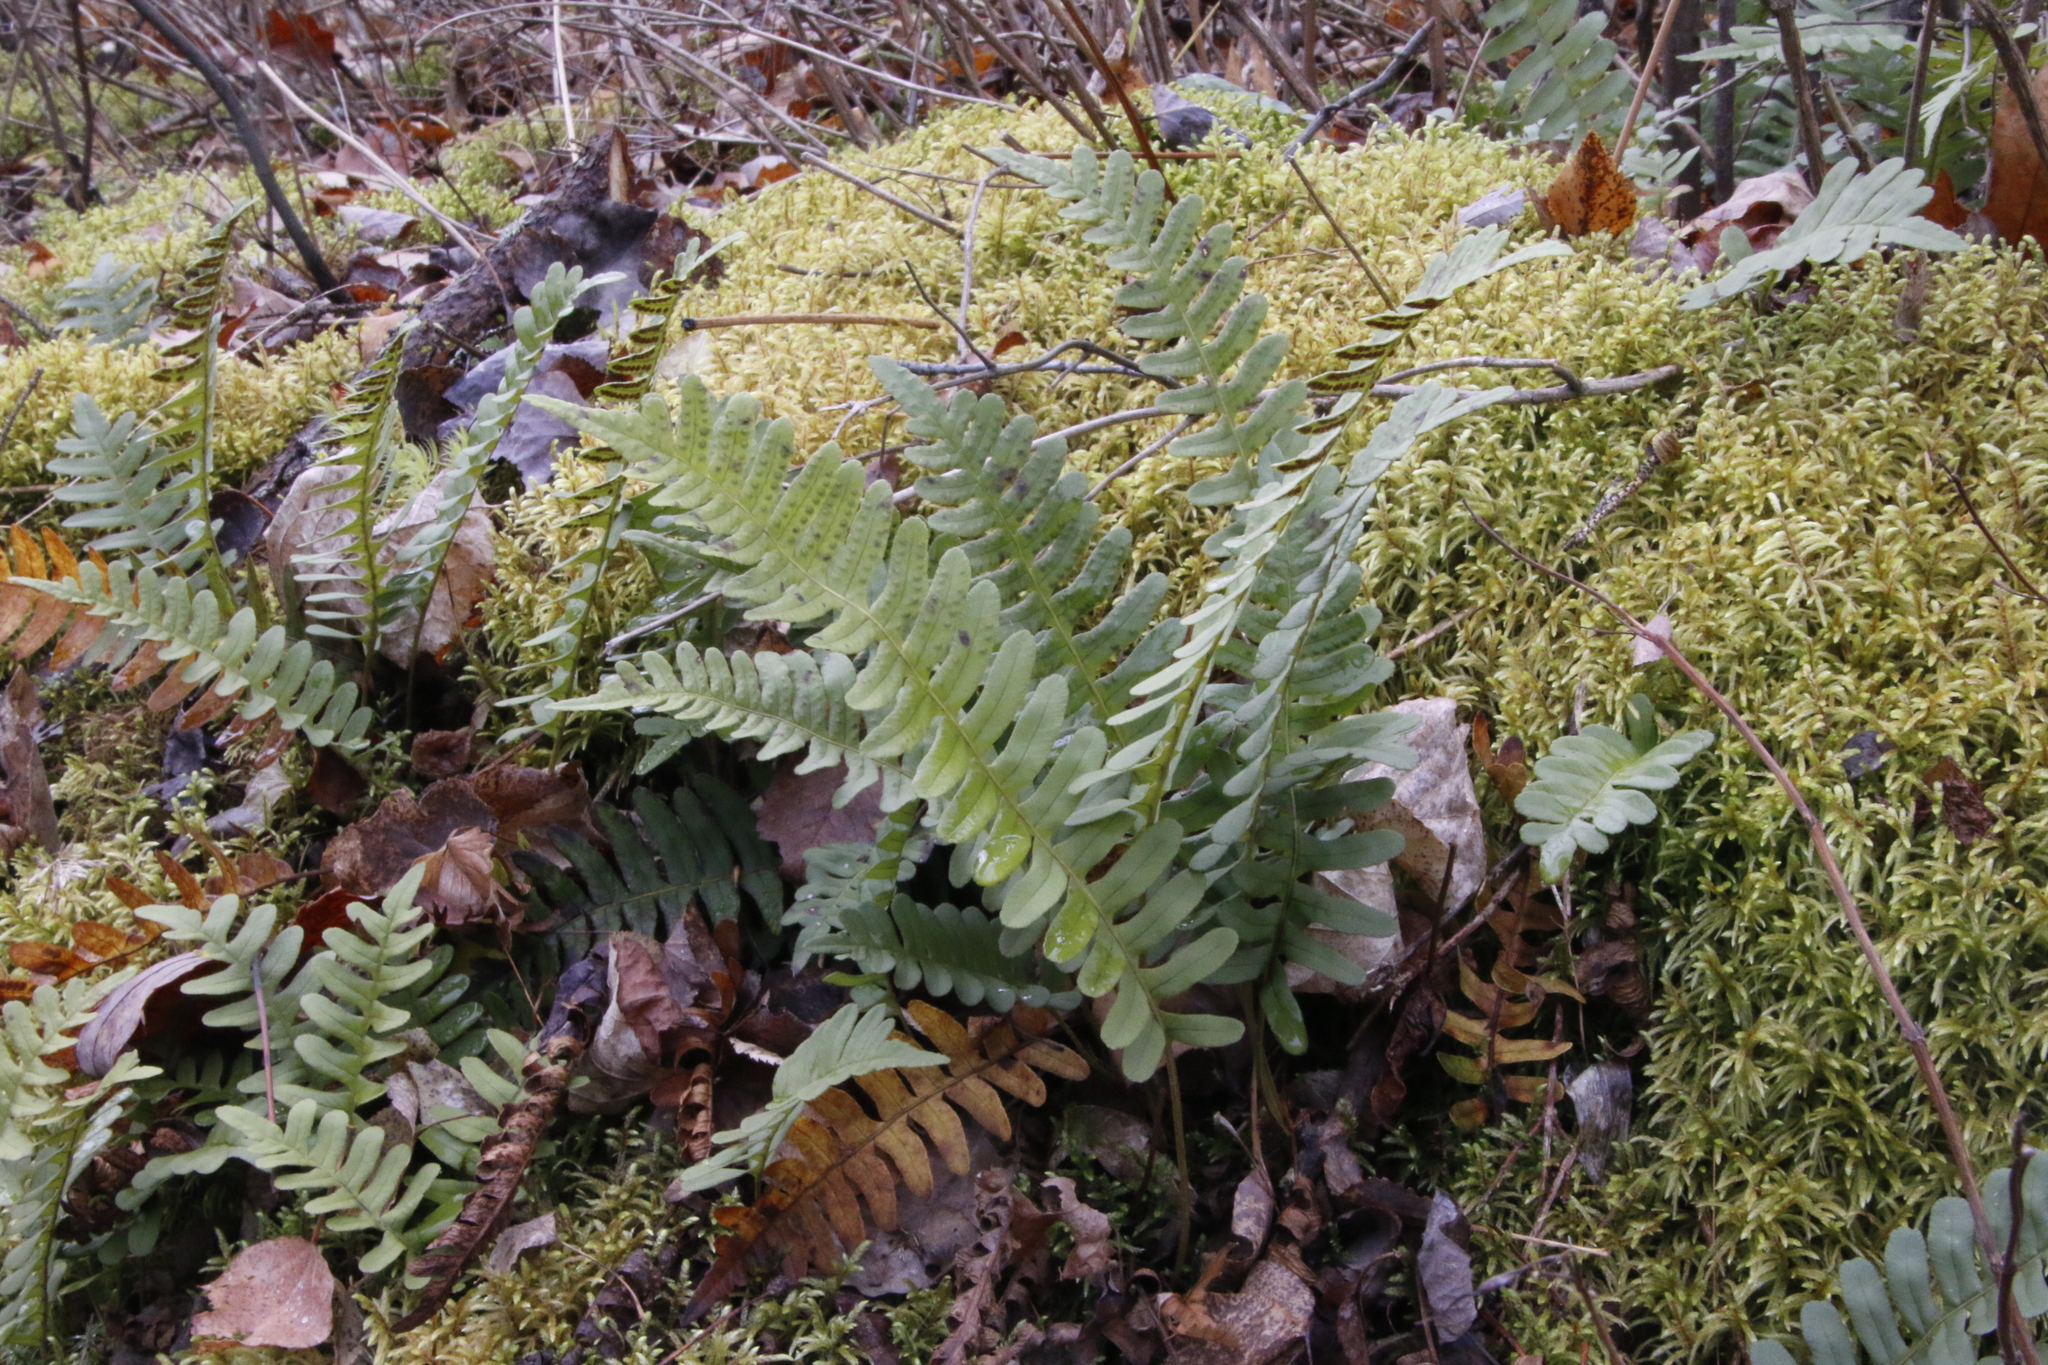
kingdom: Plantae
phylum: Tracheophyta
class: Polypodiopsida
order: Polypodiales
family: Polypodiaceae
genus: Polypodium
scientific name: Polypodium virginianum
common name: American wall fern
